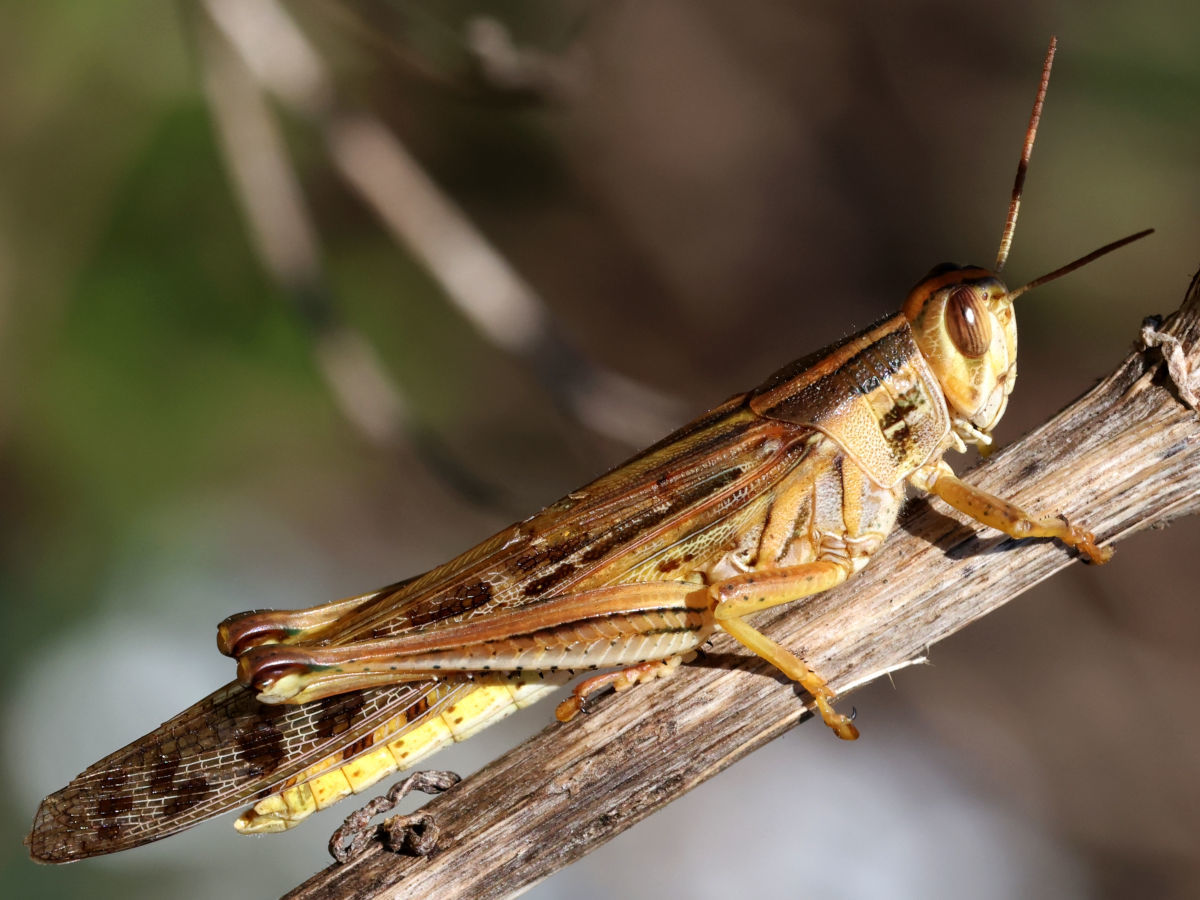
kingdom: Animalia
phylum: Arthropoda
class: Insecta
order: Orthoptera
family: Acrididae
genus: Schistocerca
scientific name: Schistocerca americana
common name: American bird locust
